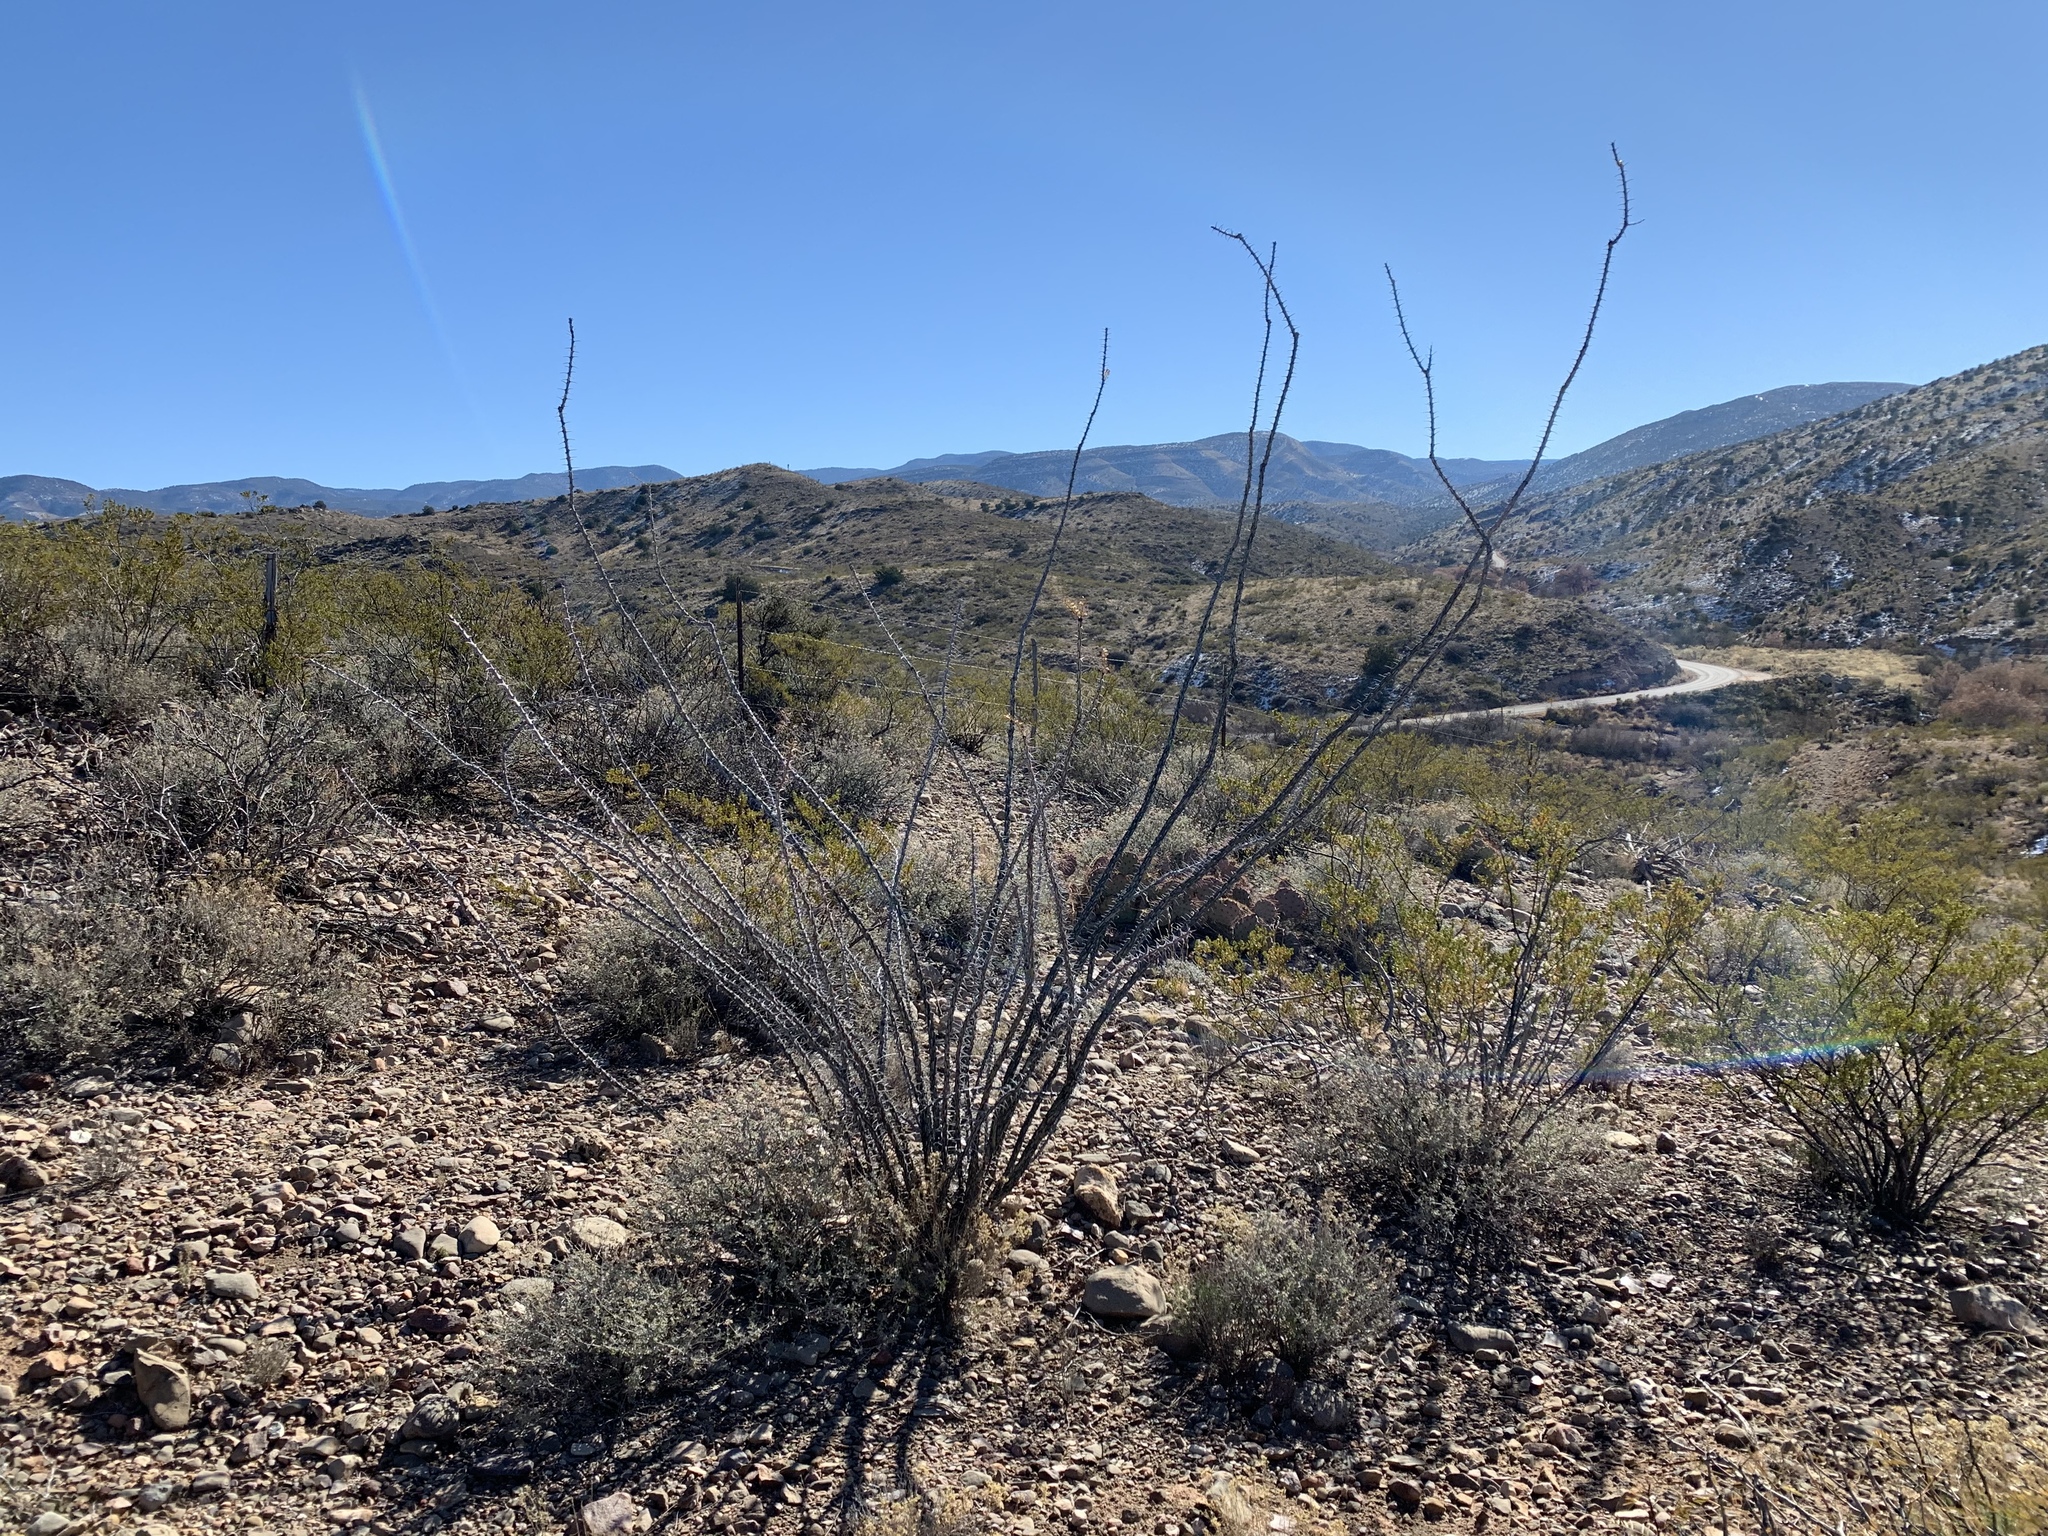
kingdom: Plantae
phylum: Tracheophyta
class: Magnoliopsida
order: Ericales
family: Fouquieriaceae
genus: Fouquieria
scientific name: Fouquieria splendens
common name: Vine-cactus
